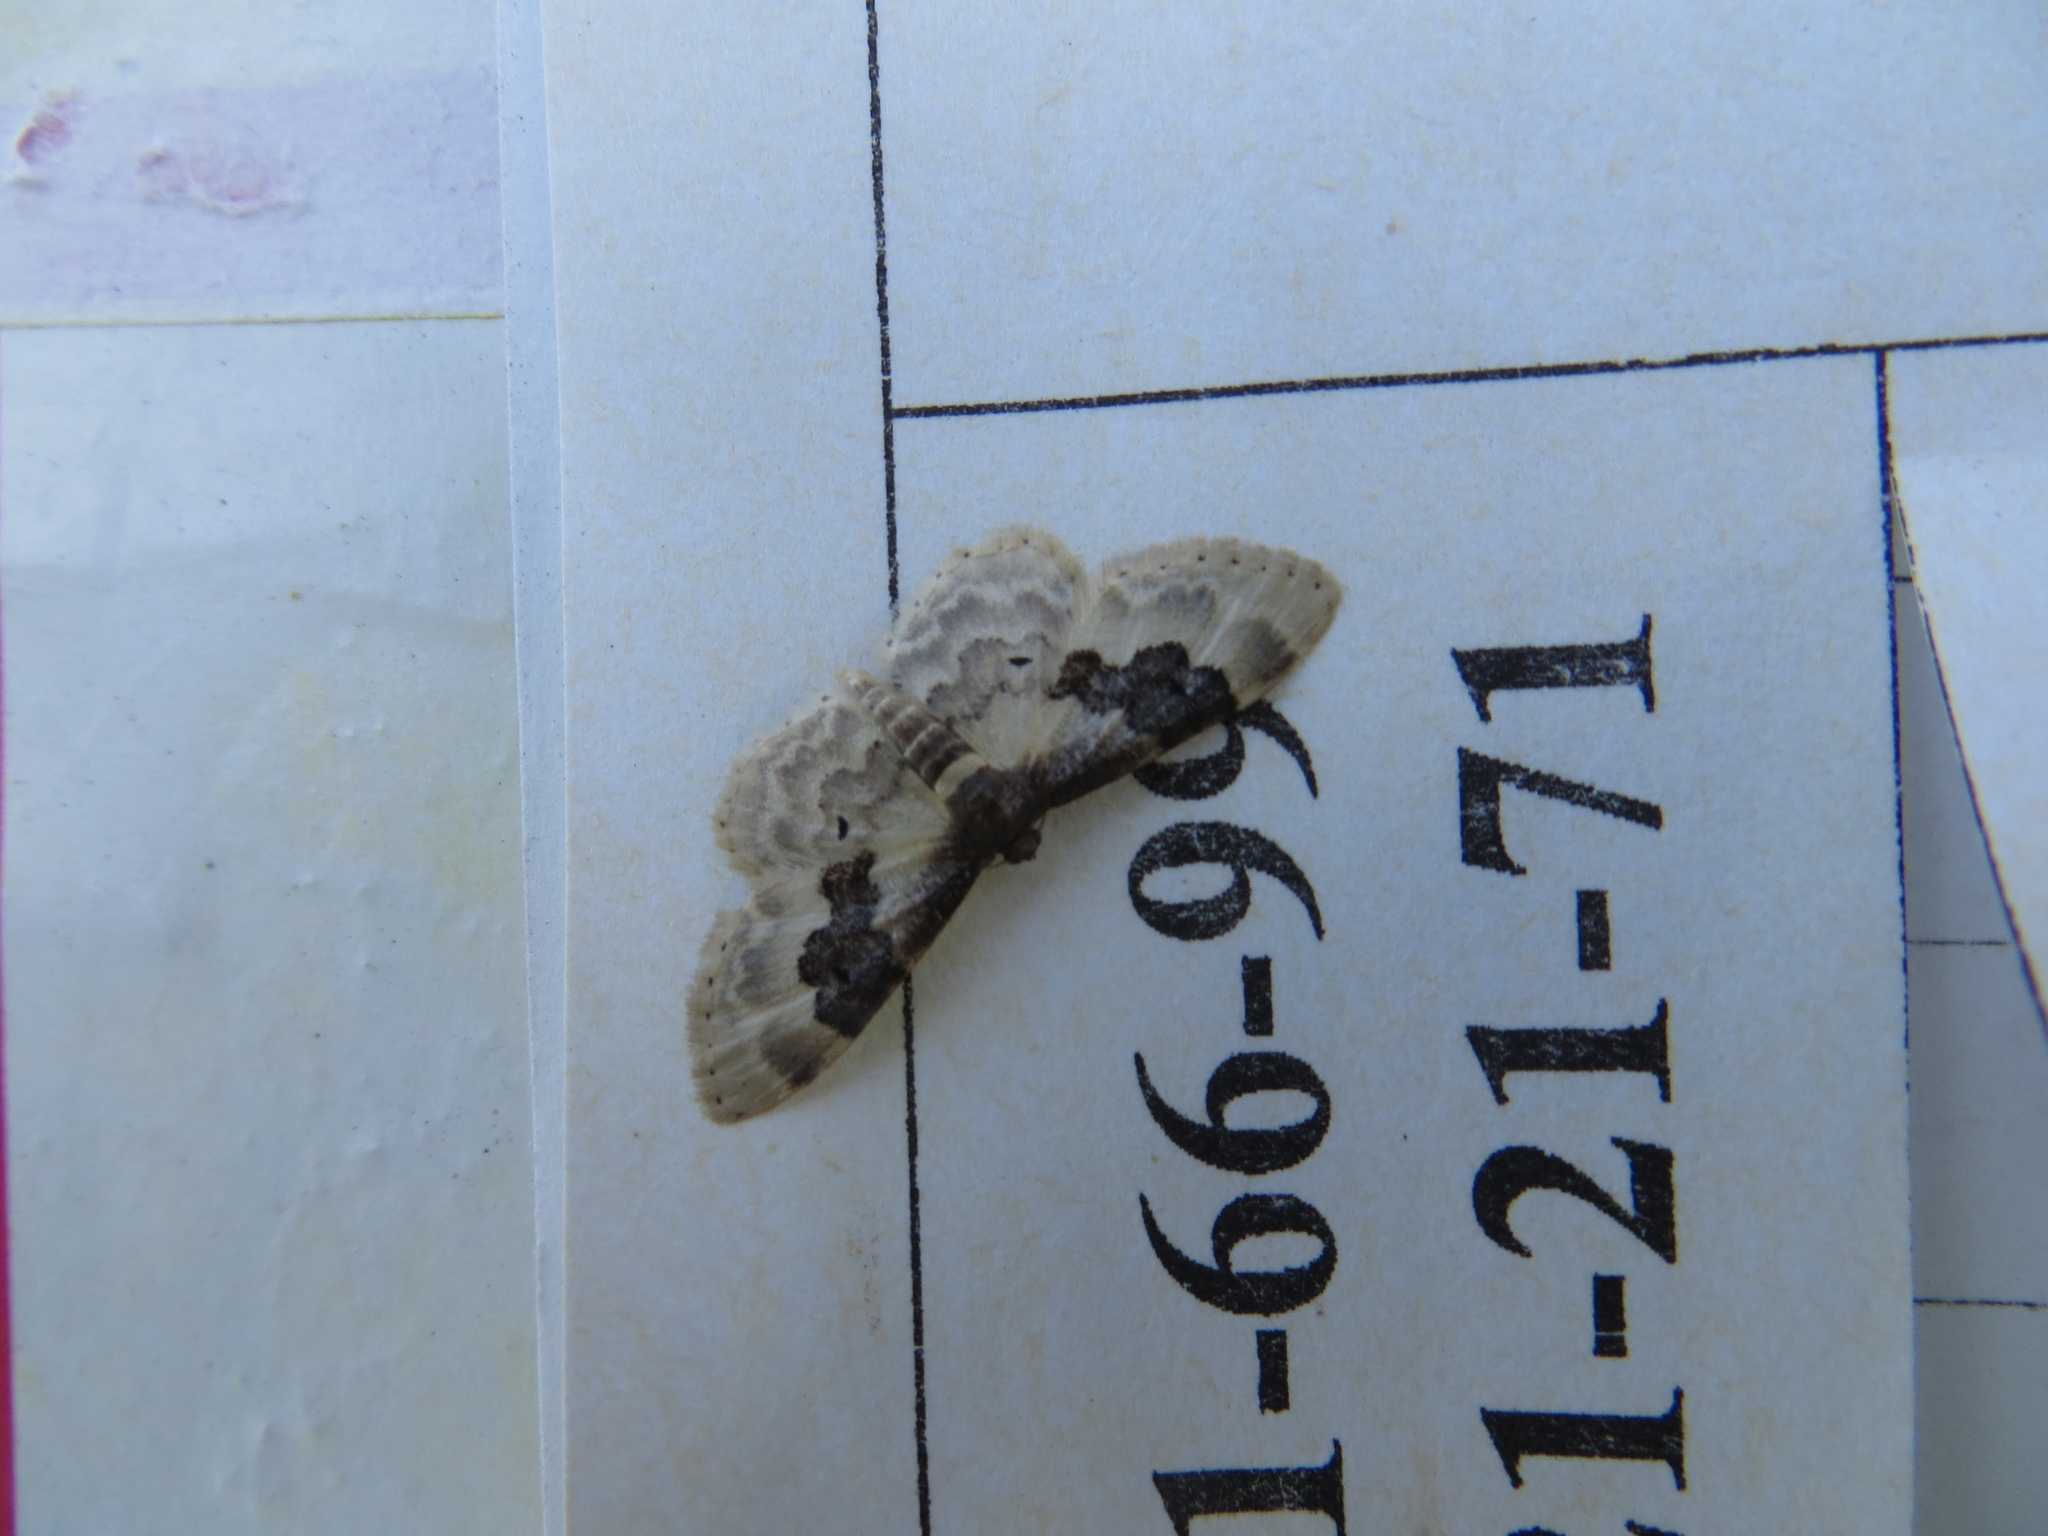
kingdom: Animalia
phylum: Arthropoda
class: Insecta
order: Lepidoptera
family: Geometridae
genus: Idaea
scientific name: Idaea rusticata
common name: Least carpet
